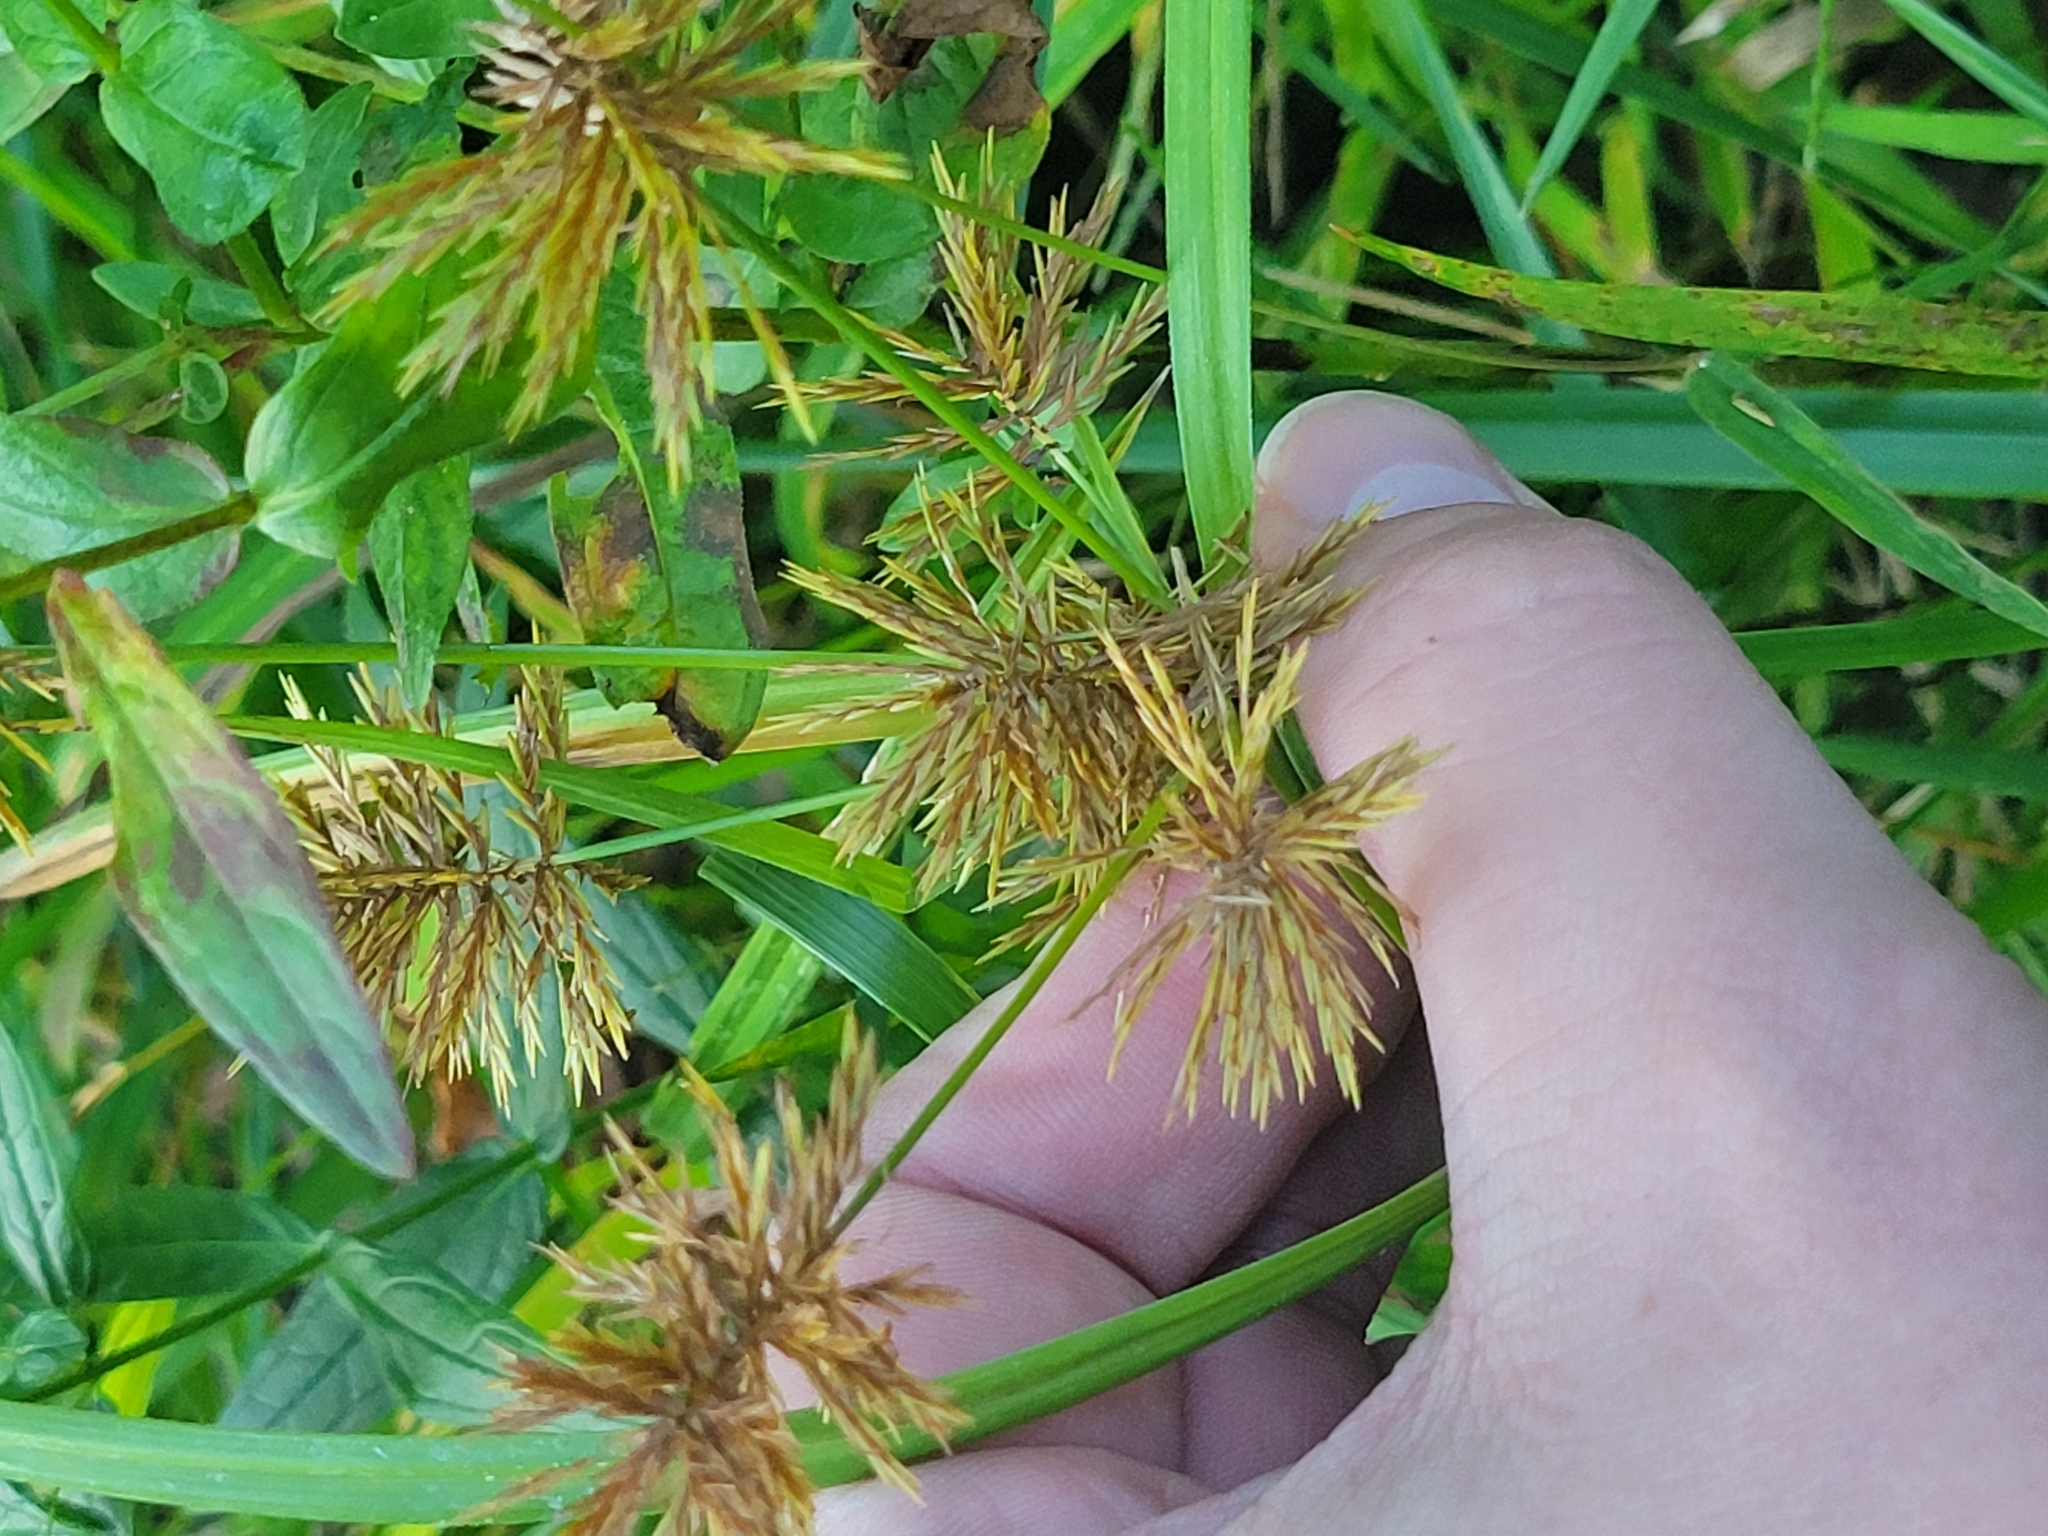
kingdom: Plantae
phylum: Tracheophyta
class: Liliopsida
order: Poales
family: Cyperaceae
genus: Cyperus
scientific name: Cyperus strigosus
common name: False nutsedge
